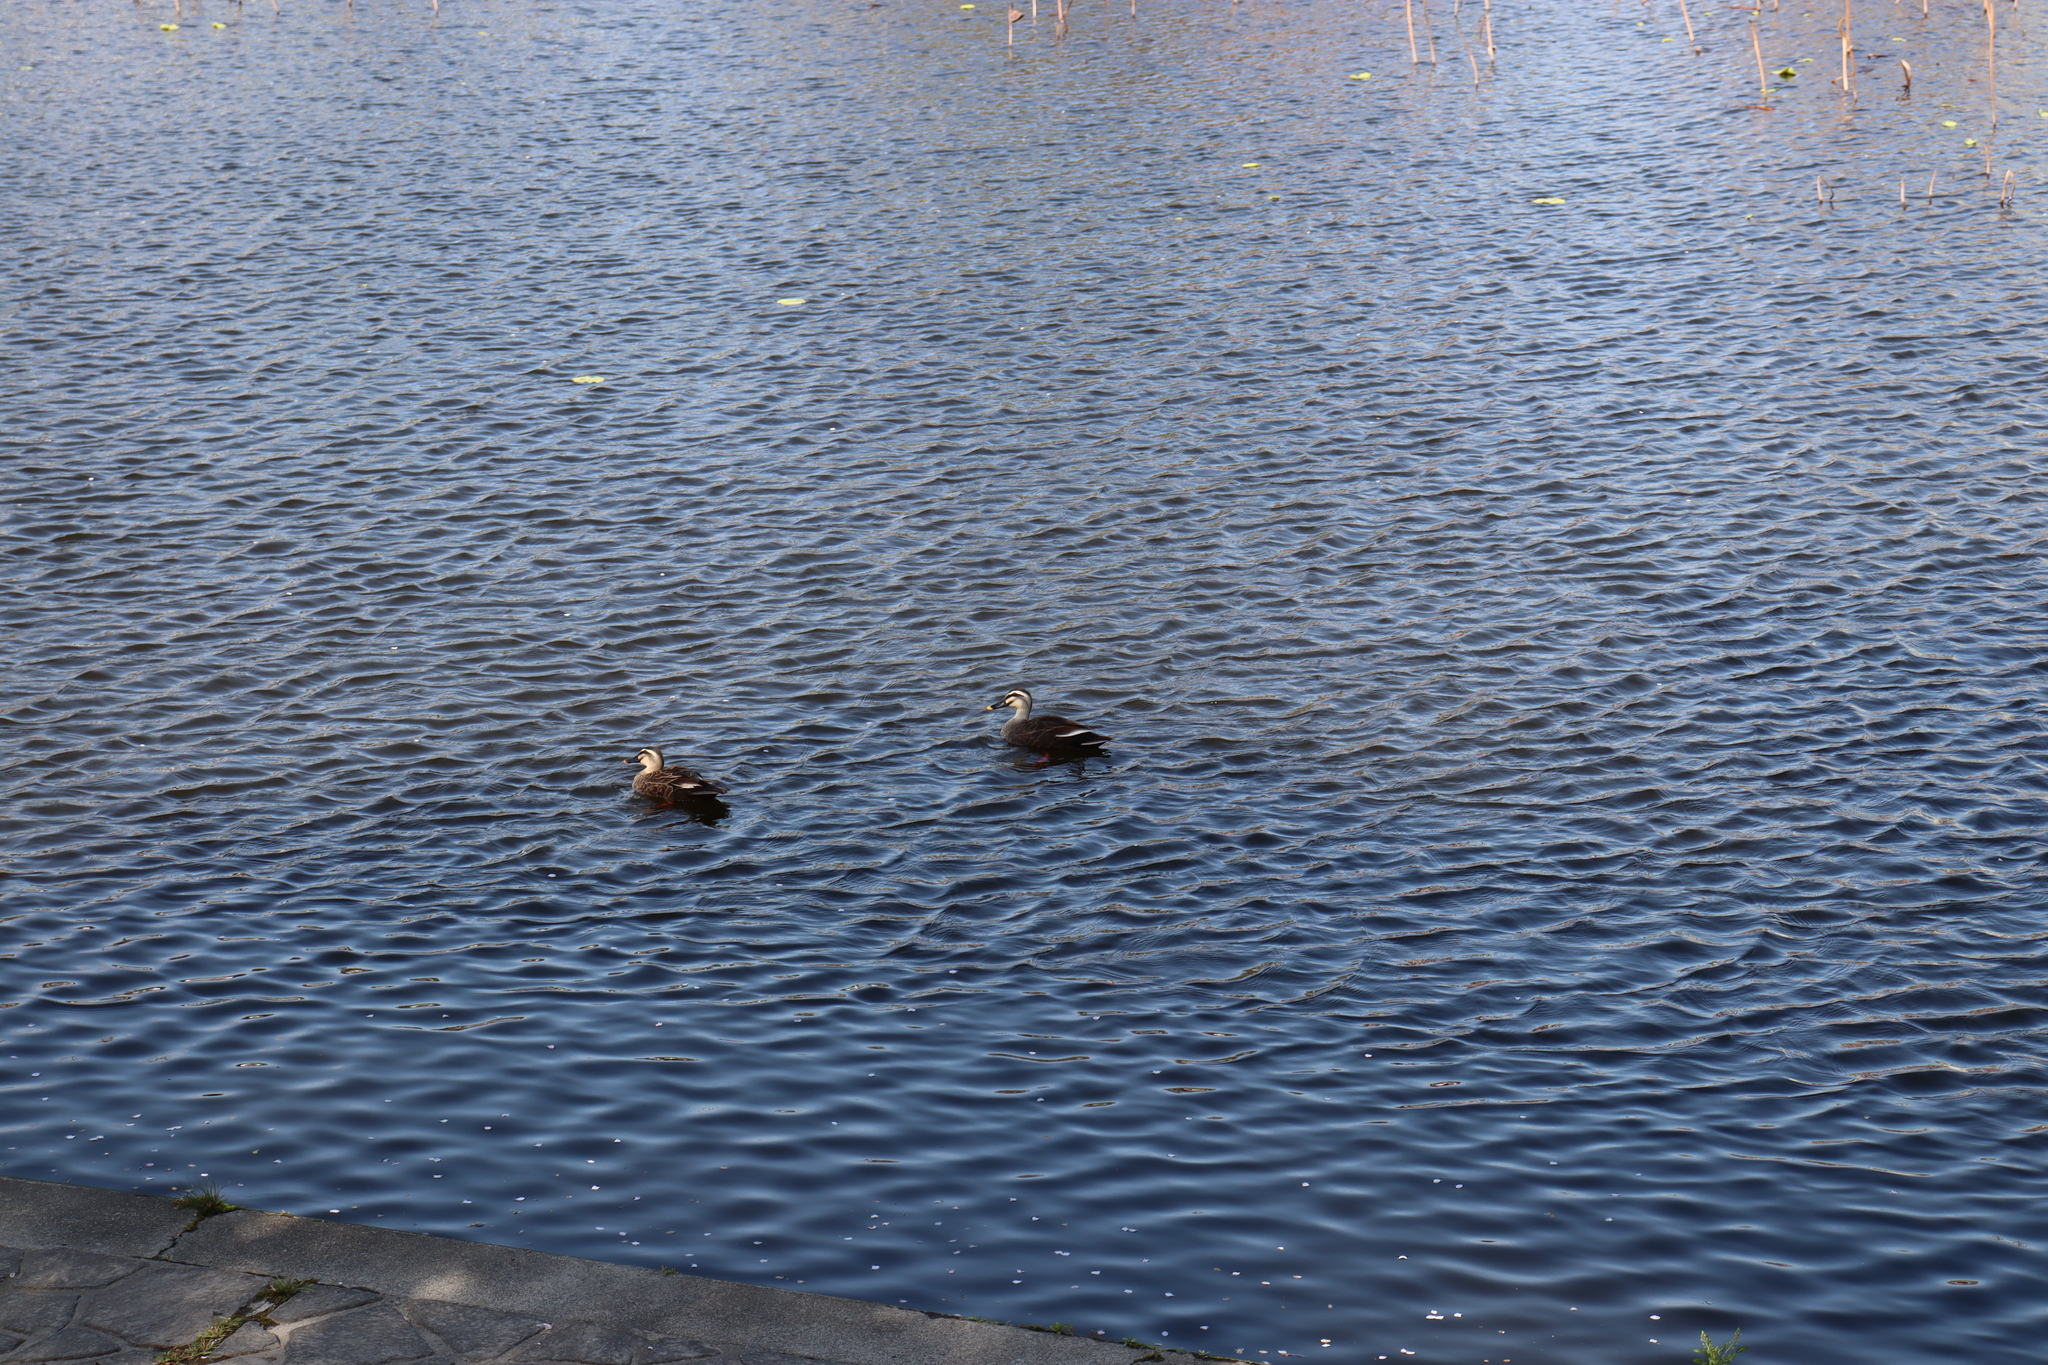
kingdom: Animalia
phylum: Chordata
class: Aves
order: Anseriformes
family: Anatidae
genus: Anas
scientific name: Anas zonorhyncha
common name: Eastern spot-billed duck
